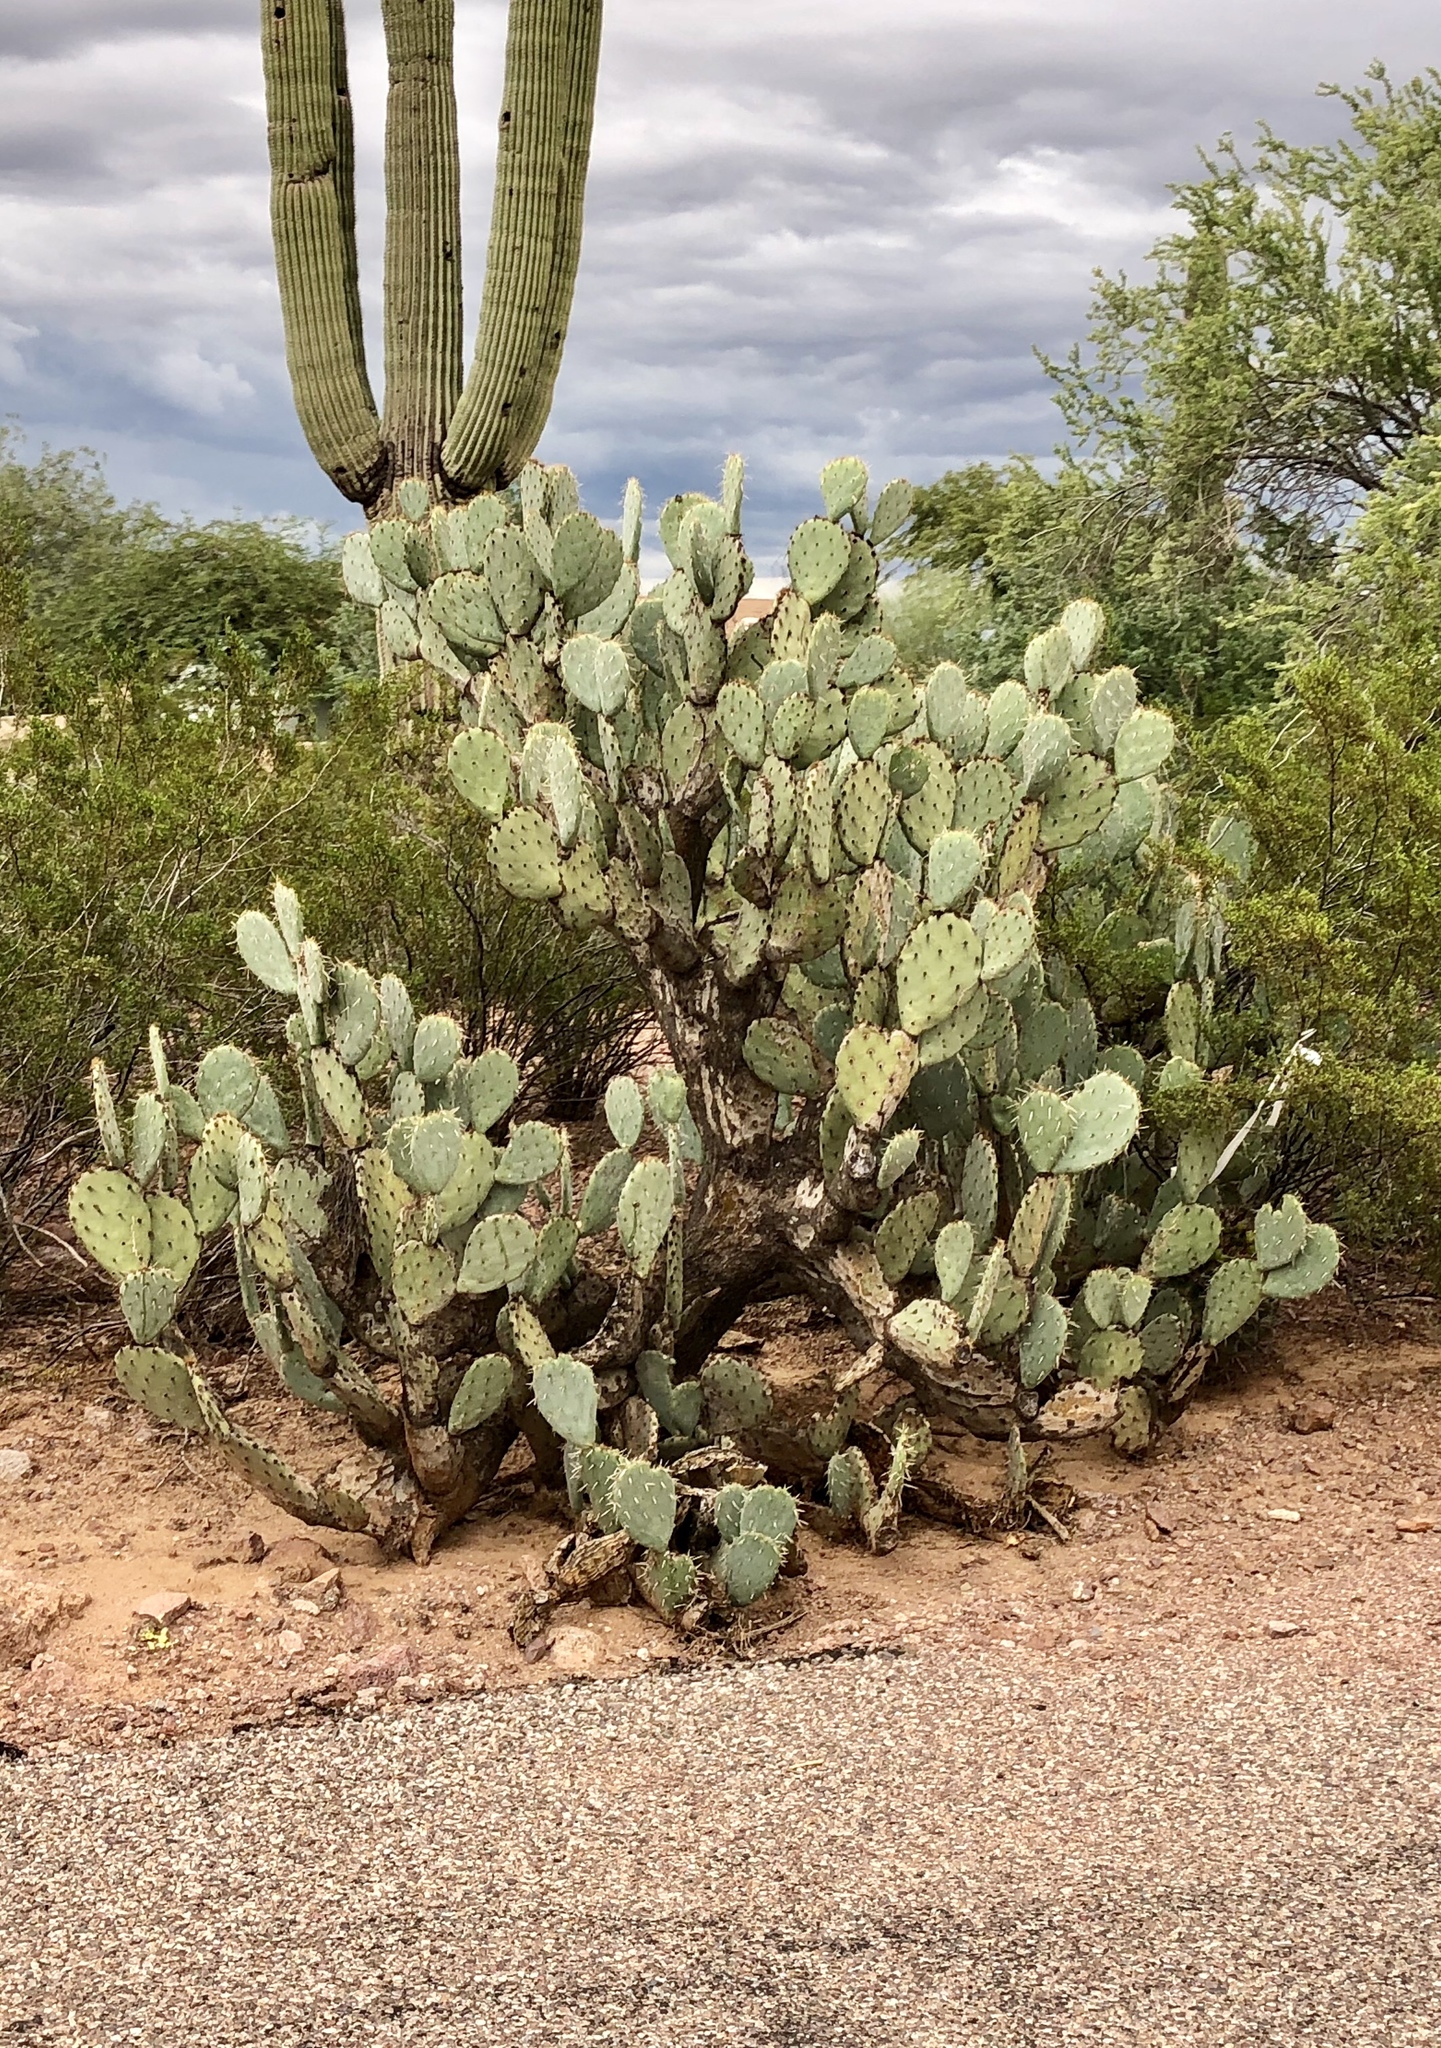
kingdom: Plantae
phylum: Tracheophyta
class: Magnoliopsida
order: Caryophyllales
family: Cactaceae
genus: Opuntia
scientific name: Opuntia engelmannii
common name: Cactus-apple
